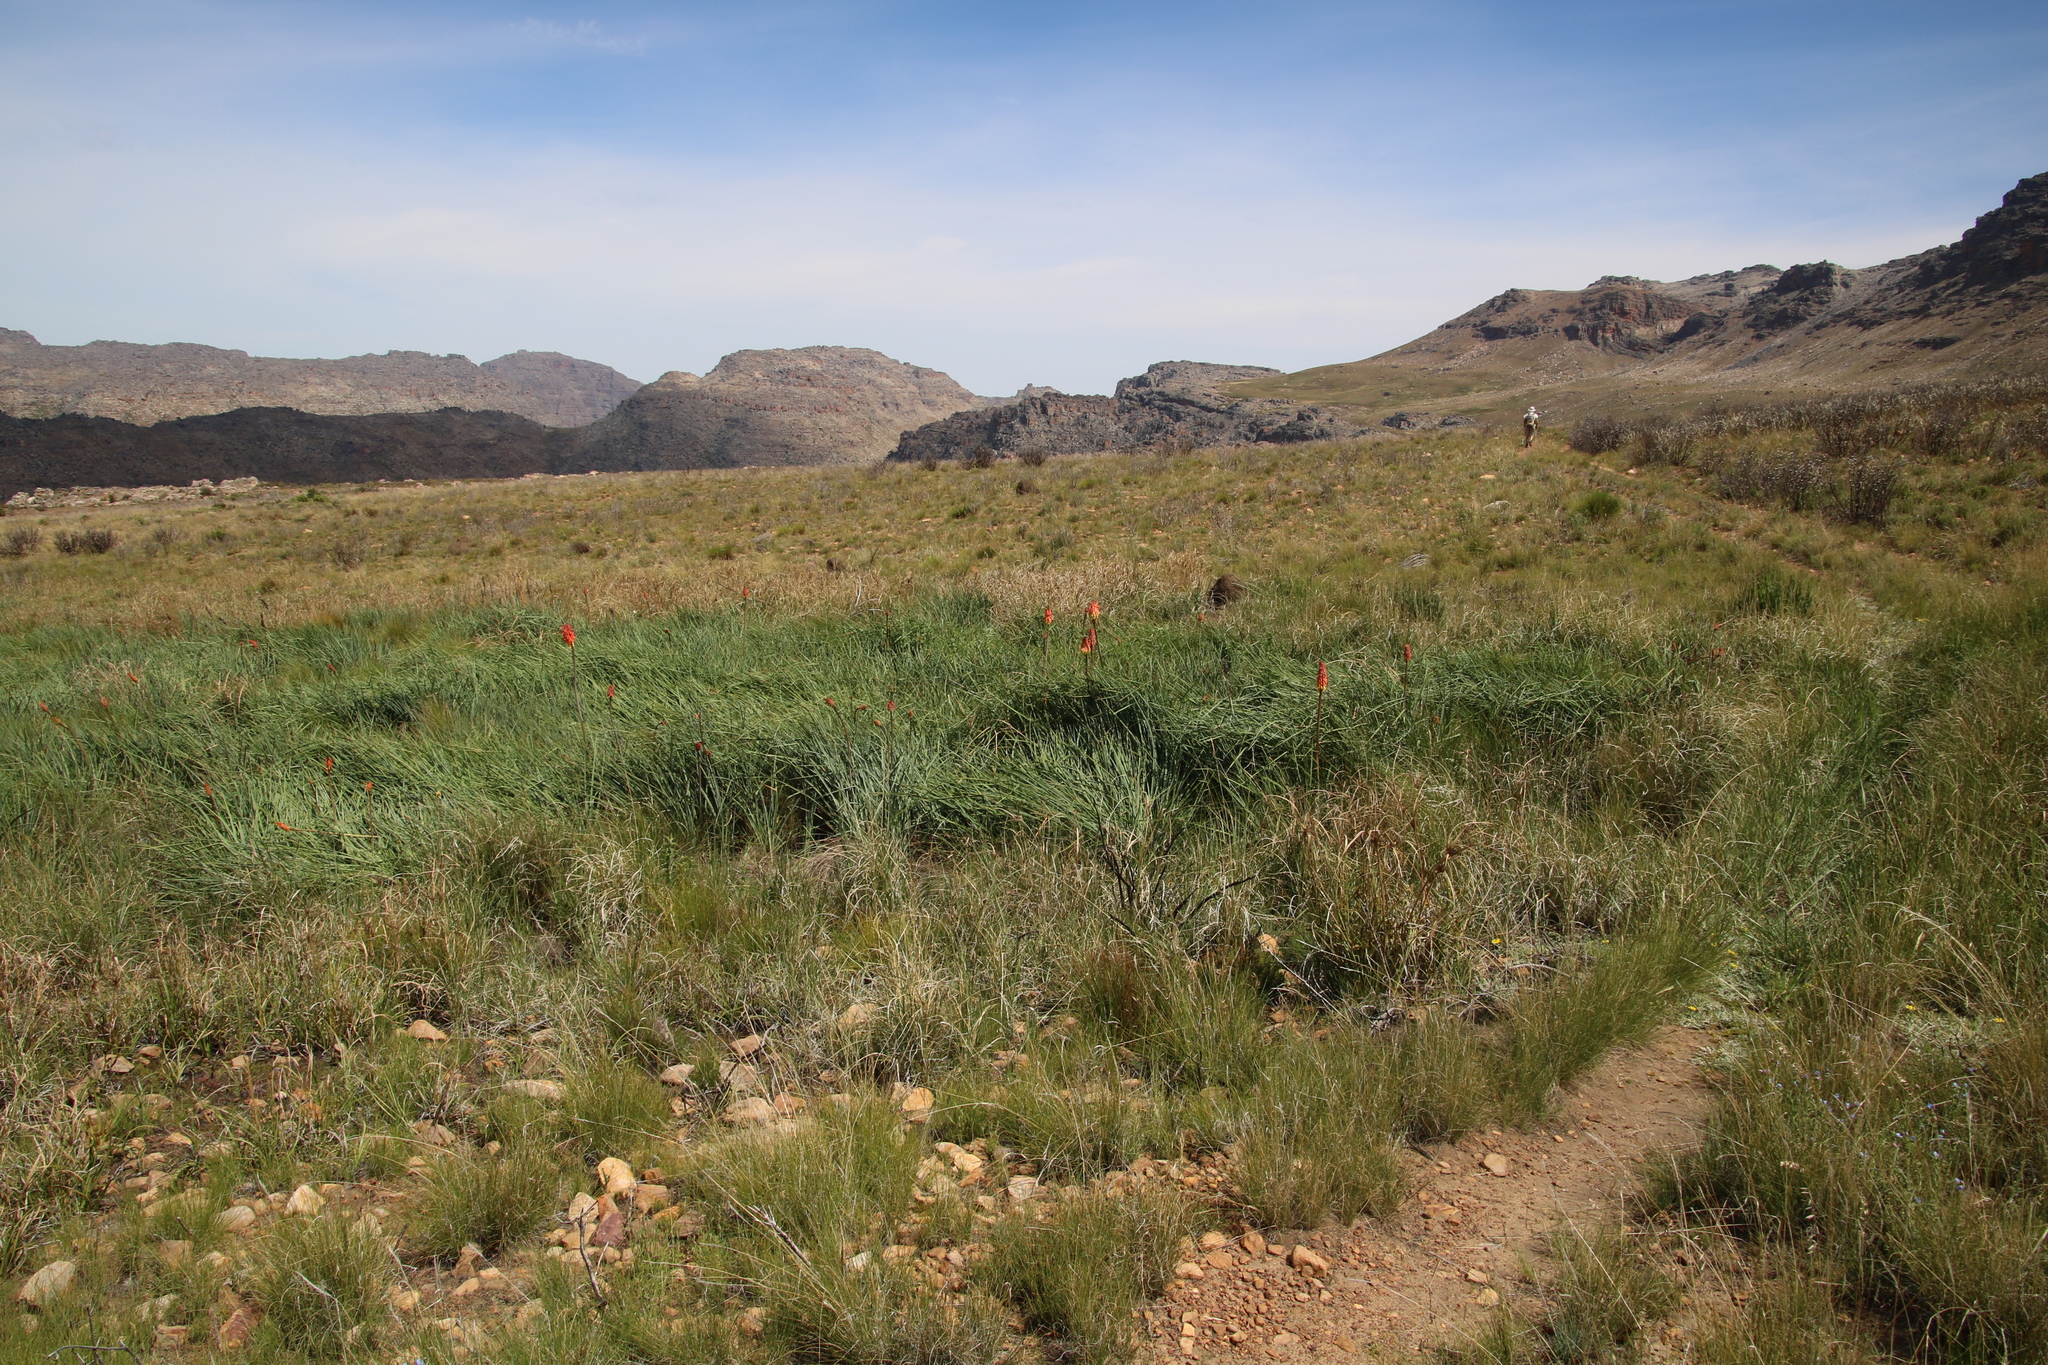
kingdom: Plantae
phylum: Tracheophyta
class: Liliopsida
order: Asparagales
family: Asphodelaceae
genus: Kniphofia
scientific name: Kniphofia uvaria
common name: Red-hot-poker
